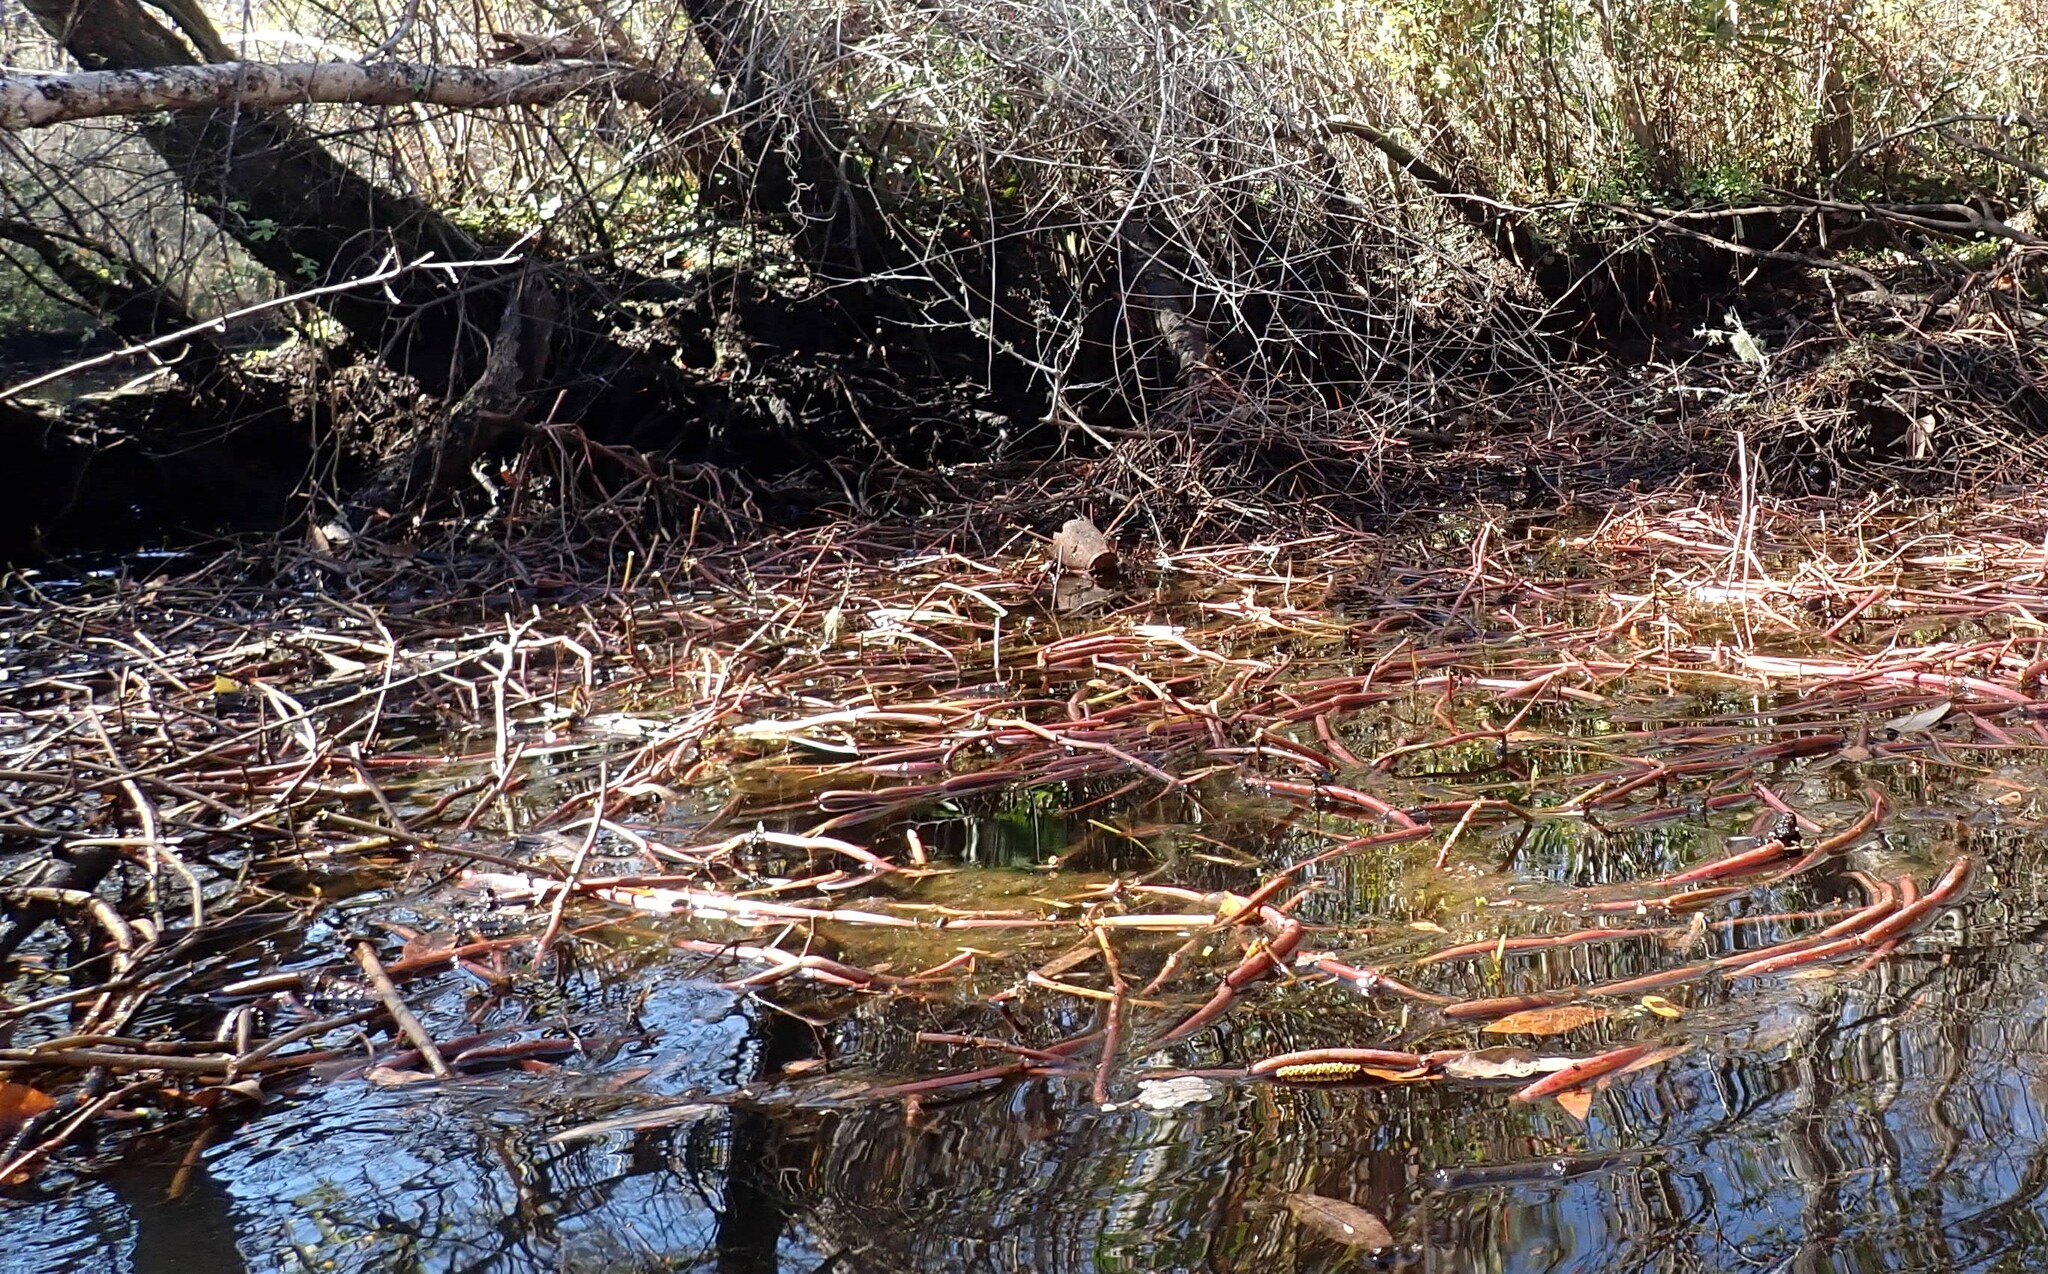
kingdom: Plantae
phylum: Tracheophyta
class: Magnoliopsida
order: Caryophyllales
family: Amaranthaceae
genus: Alternanthera
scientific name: Alternanthera philoxeroides
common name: Alligatorweed
